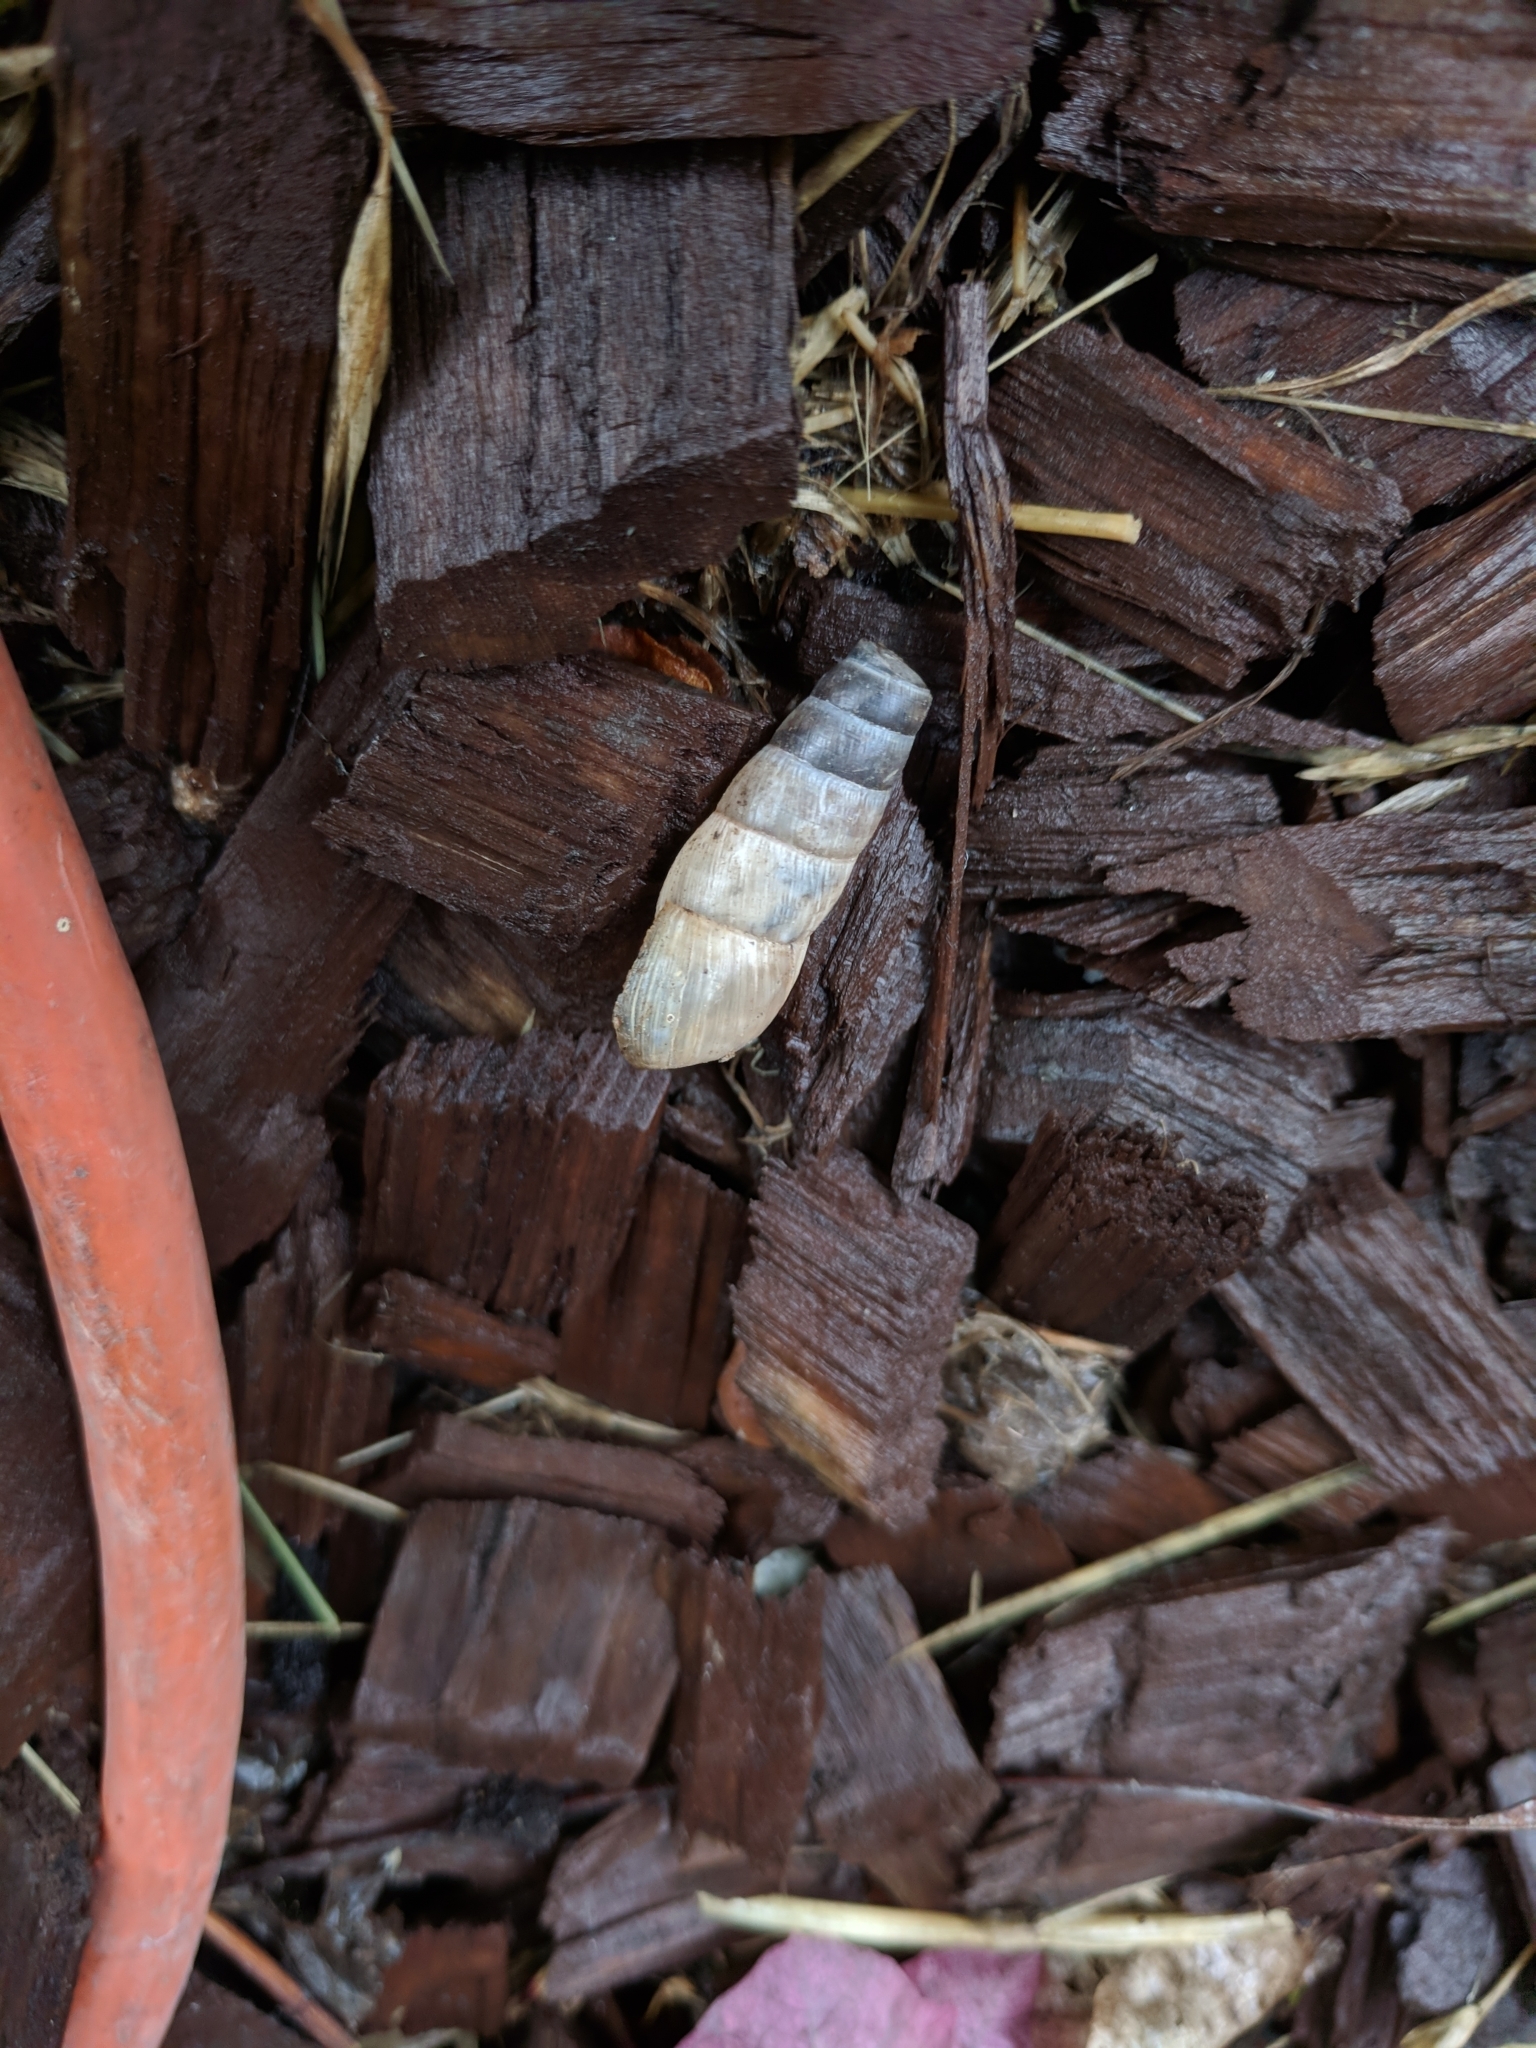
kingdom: Animalia
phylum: Mollusca
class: Gastropoda
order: Stylommatophora
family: Achatinidae
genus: Rumina
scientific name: Rumina decollata
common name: Decollate snail
